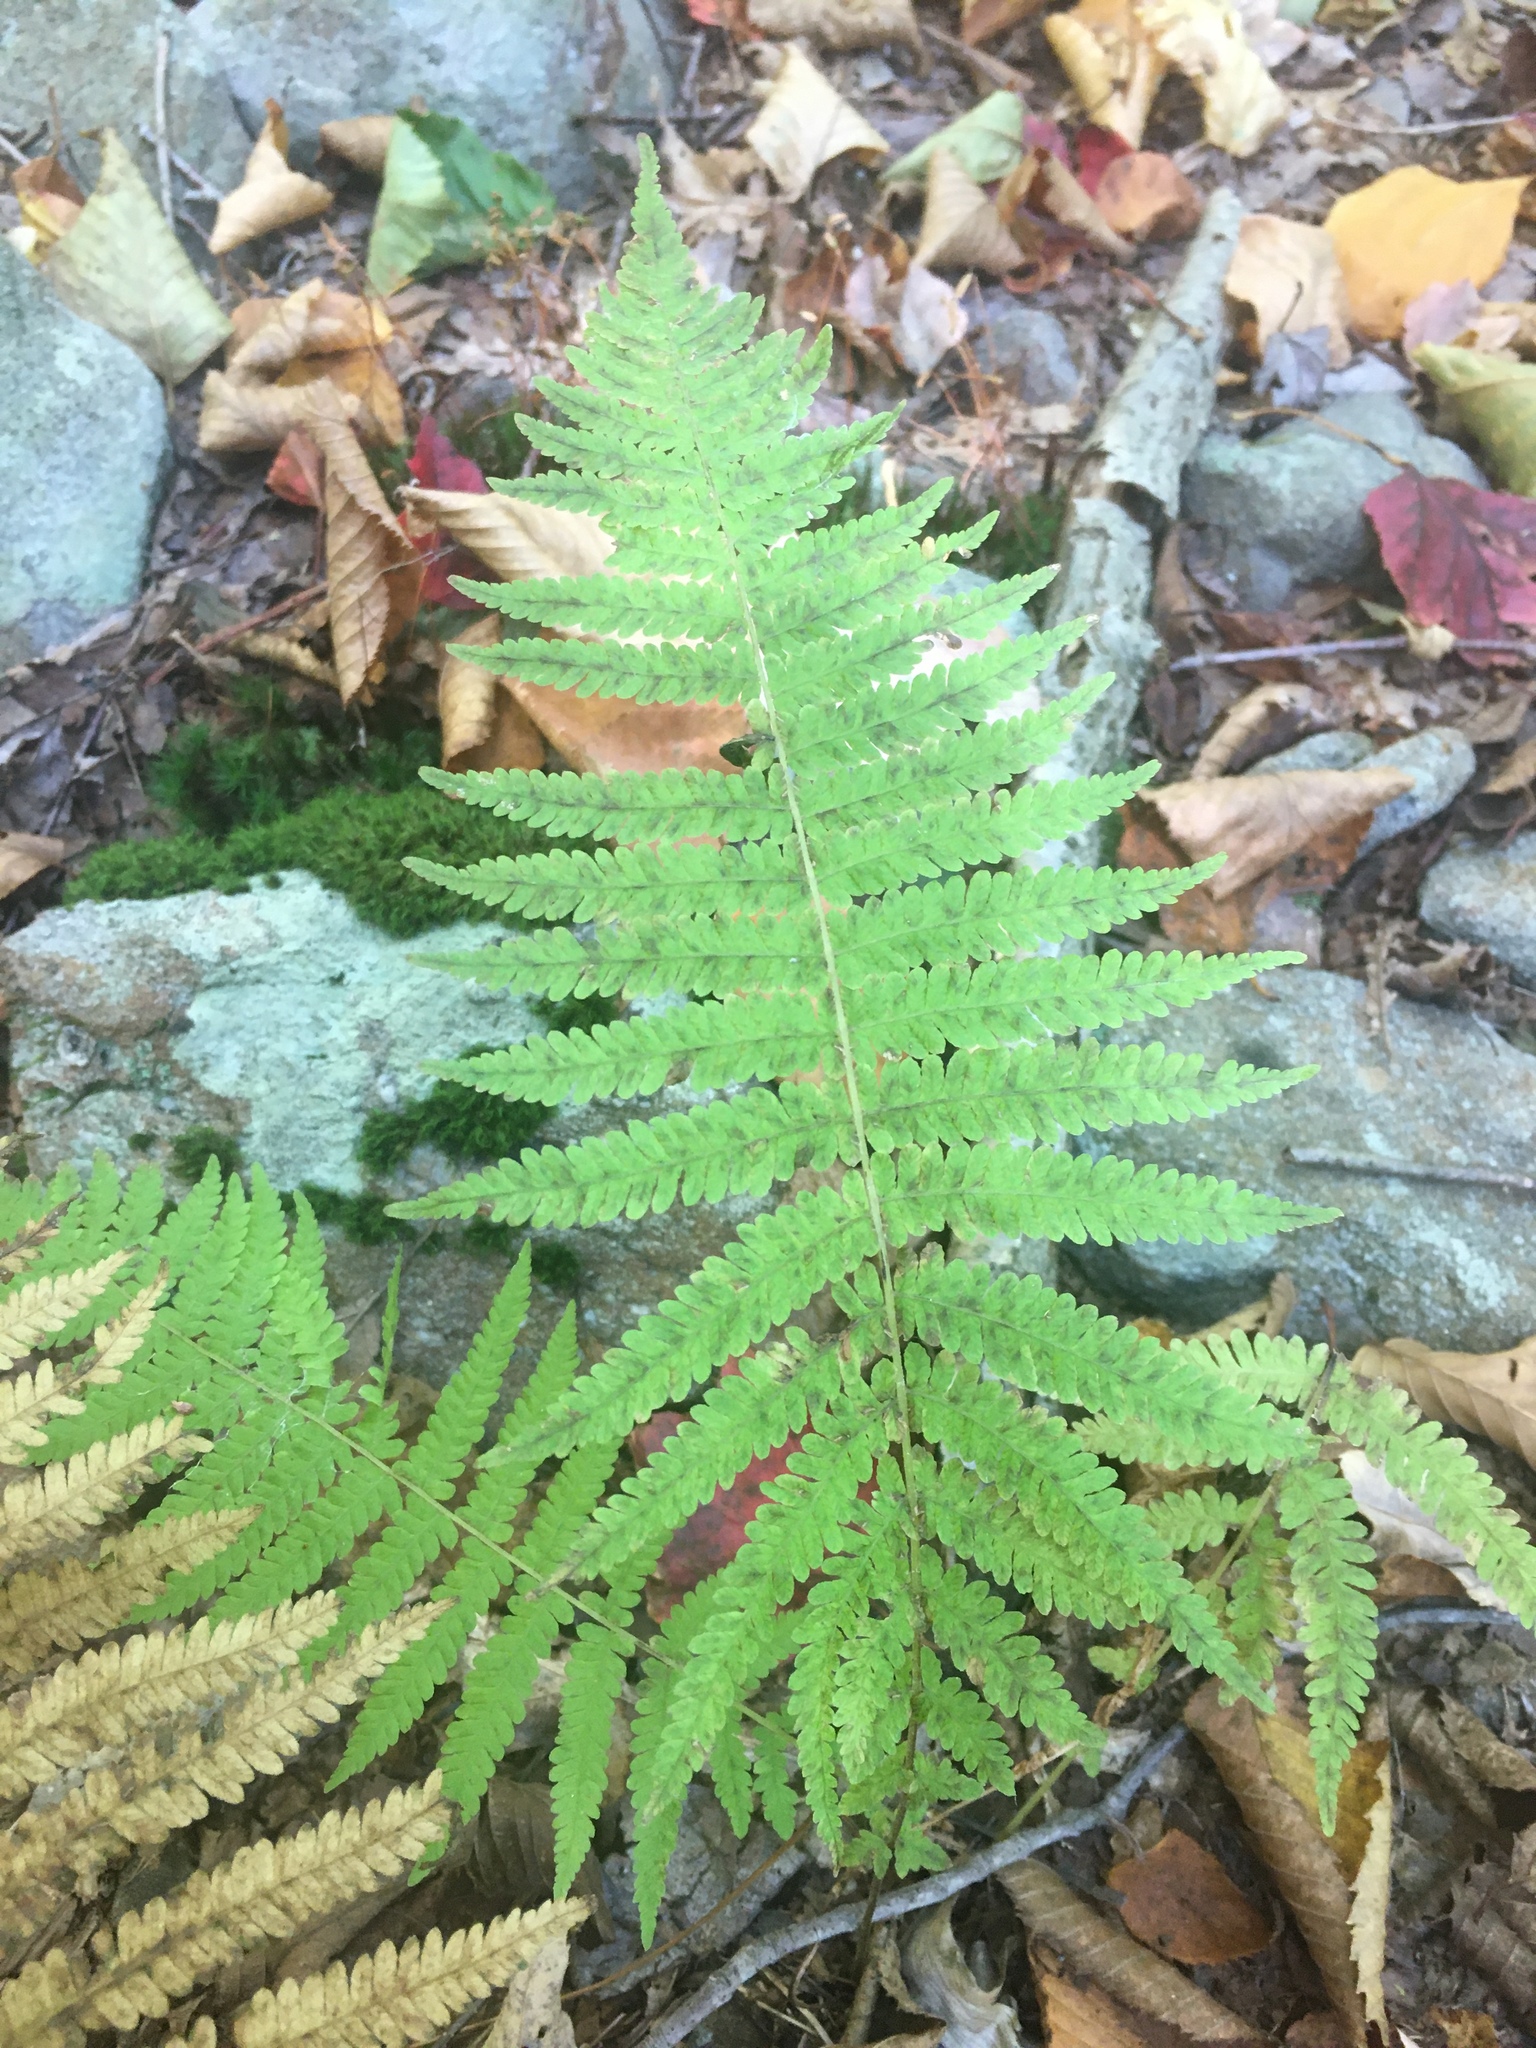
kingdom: Plantae
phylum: Tracheophyta
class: Polypodiopsida
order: Polypodiales
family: Thelypteridaceae
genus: Amauropelta
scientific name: Amauropelta noveboracensis
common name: New york fern
